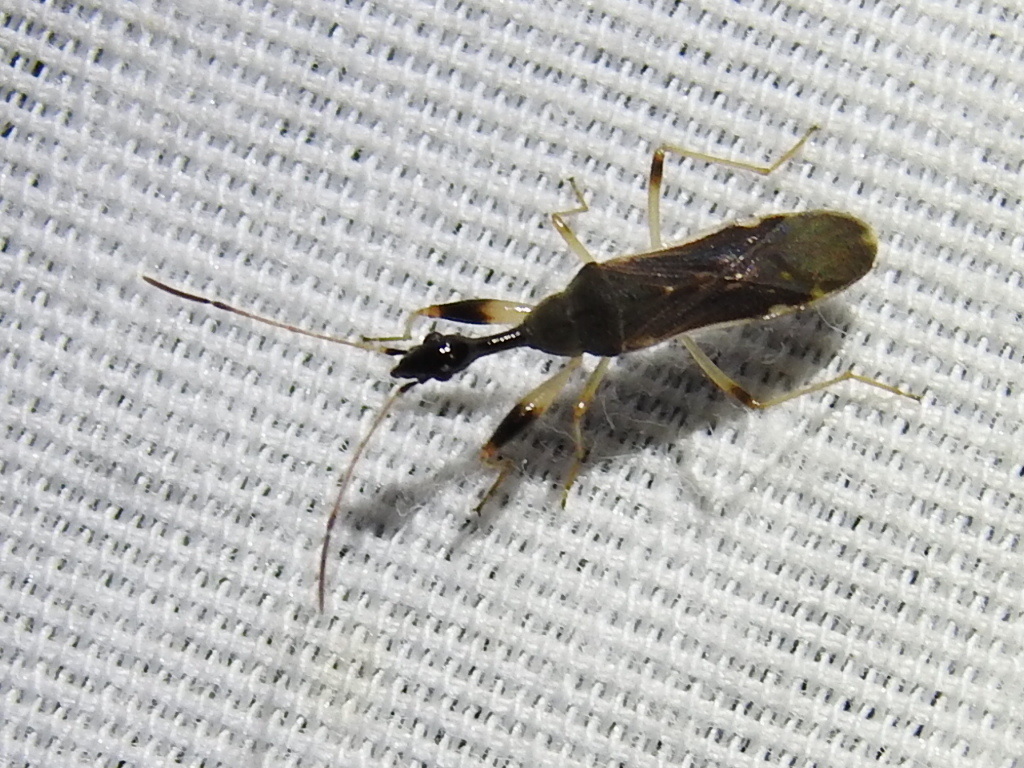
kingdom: Animalia
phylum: Arthropoda
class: Insecta
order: Hemiptera
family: Rhyparochromidae
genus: Myodocha
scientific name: Myodocha serripes
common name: Long-necked seed bug
